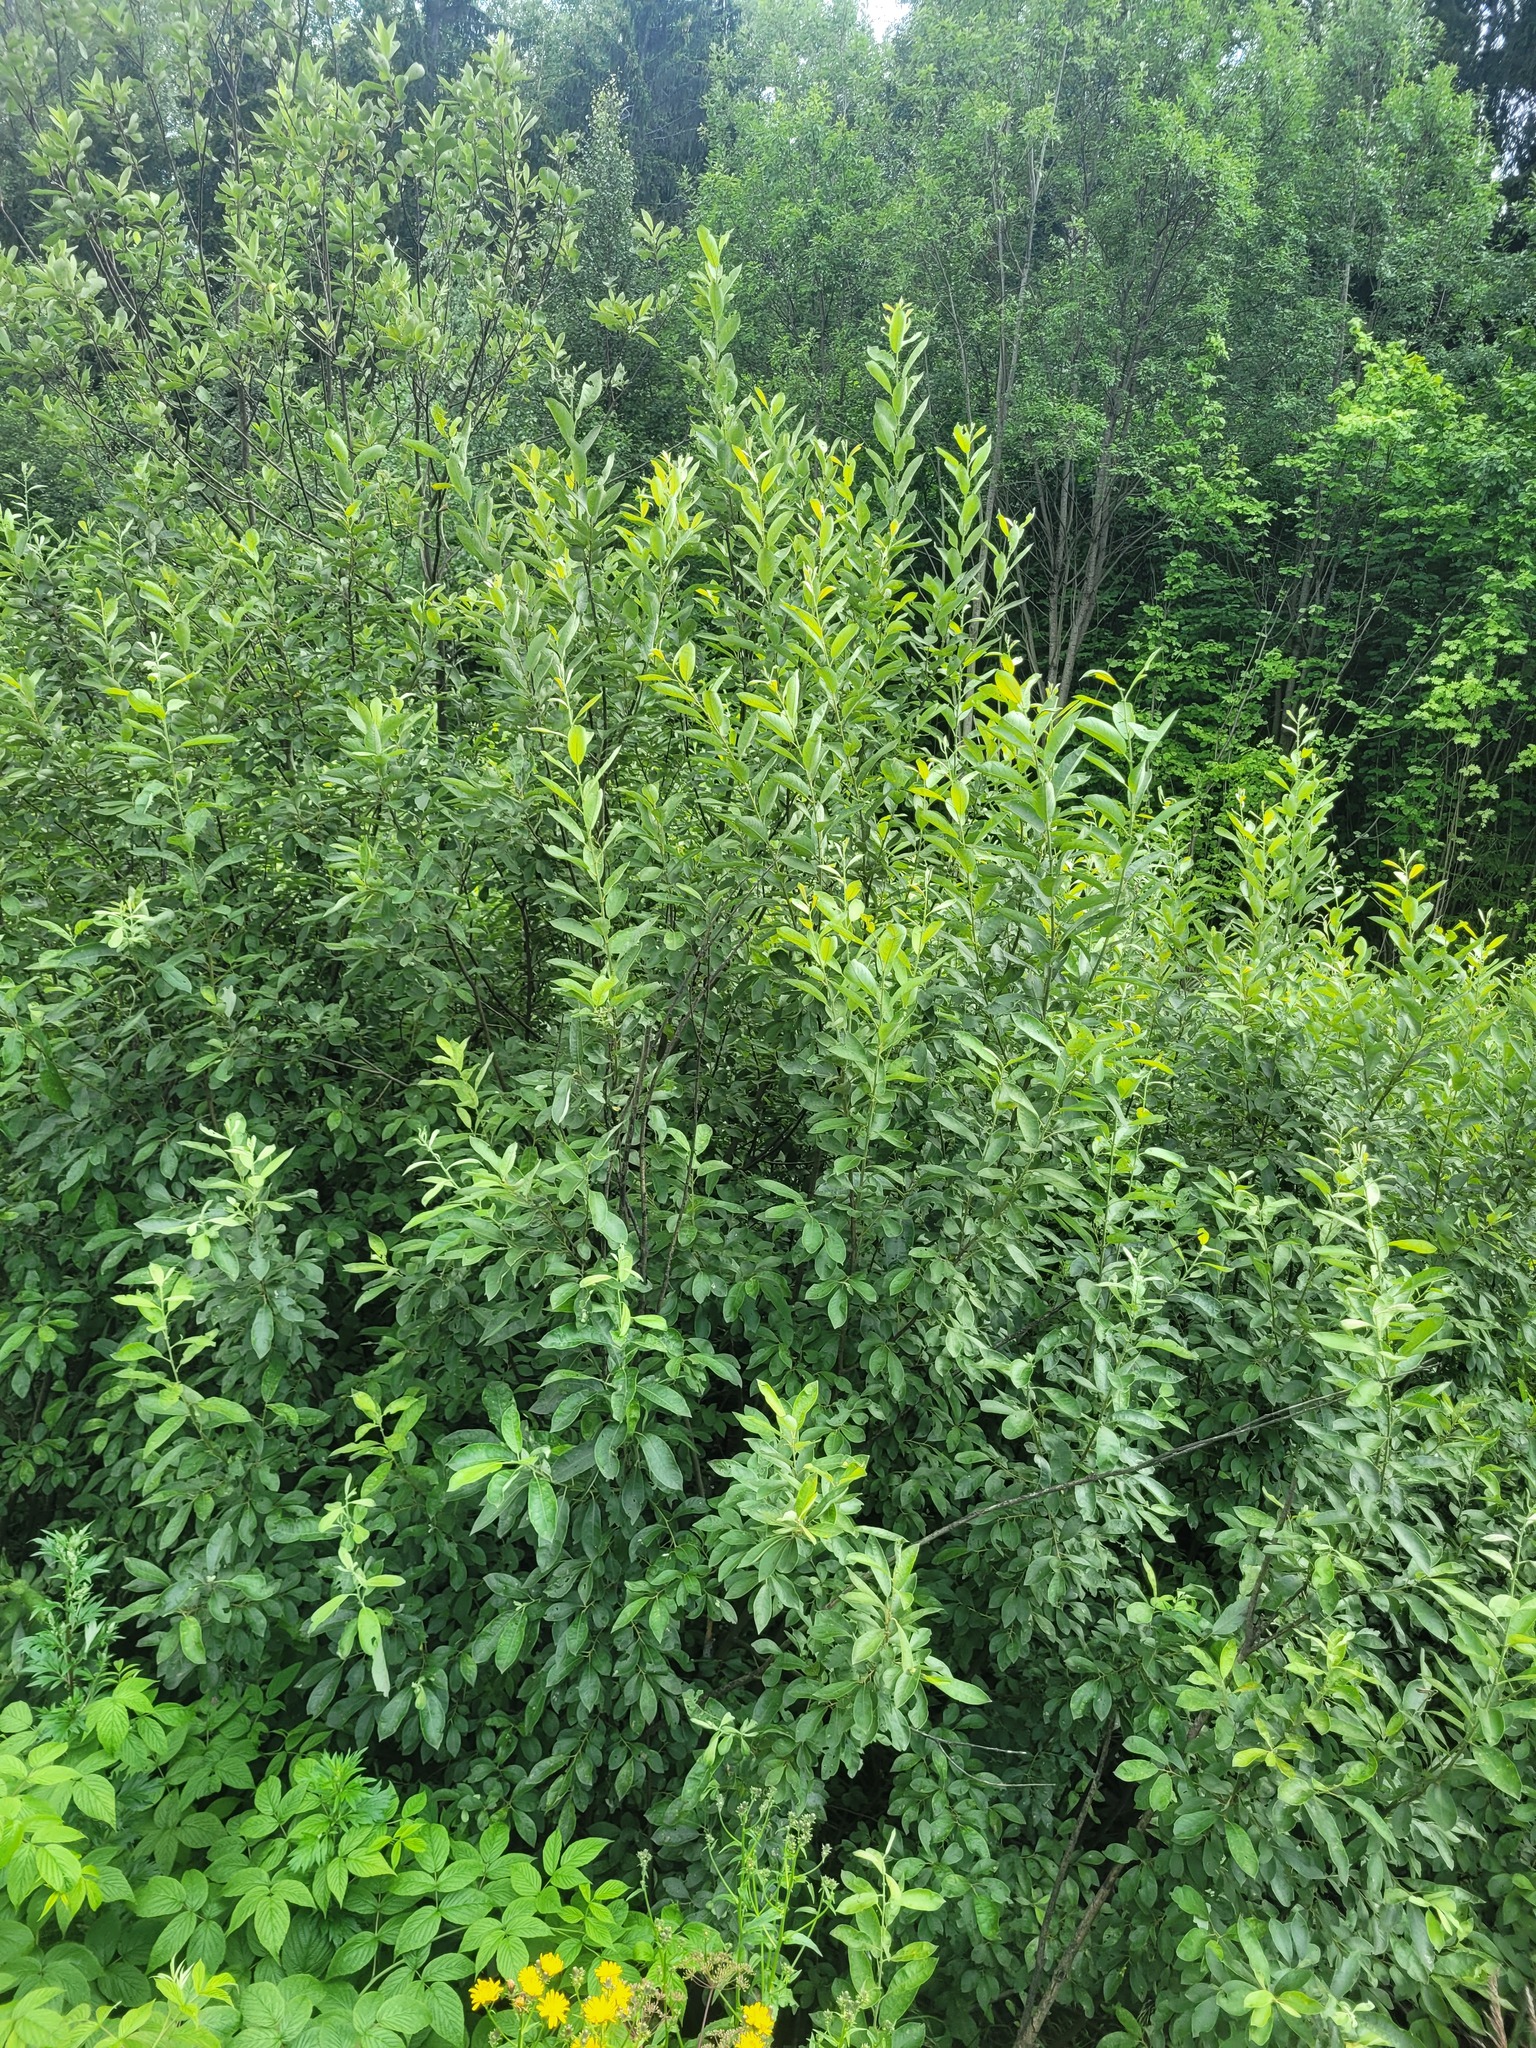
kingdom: Plantae
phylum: Tracheophyta
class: Magnoliopsida
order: Malpighiales
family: Salicaceae
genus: Salix
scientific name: Salix cinerea
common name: Common sallow
